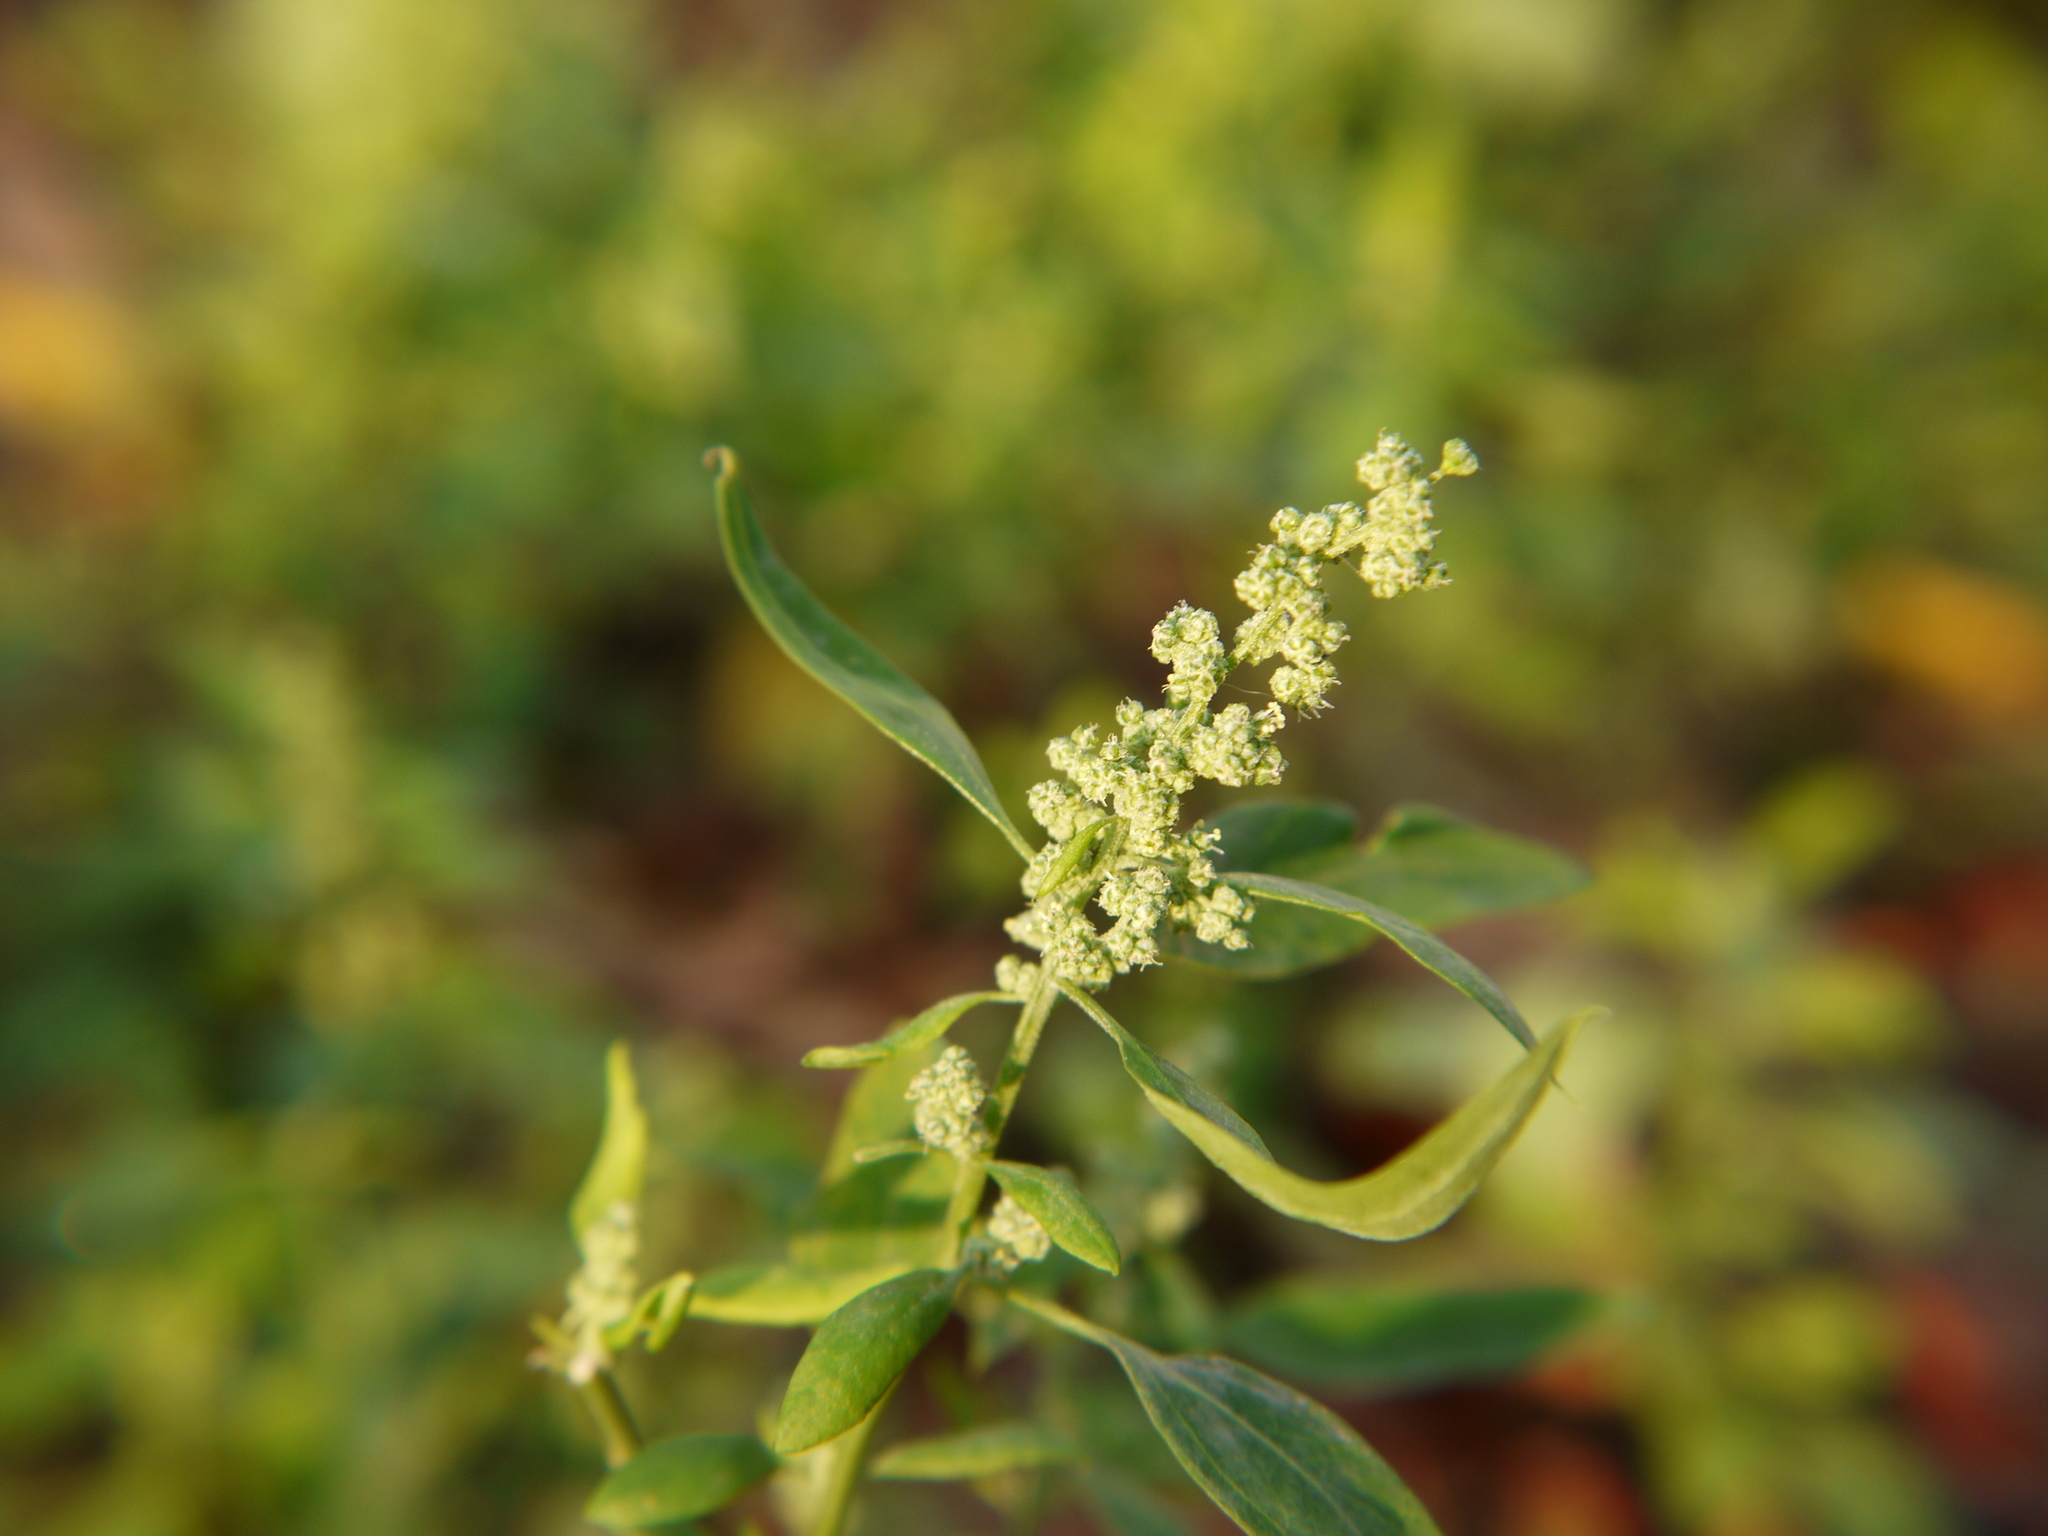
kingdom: Plantae
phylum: Tracheophyta
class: Magnoliopsida
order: Caryophyllales
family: Amaranthaceae
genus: Chenopodium
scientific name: Chenopodium album
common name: Fat-hen
